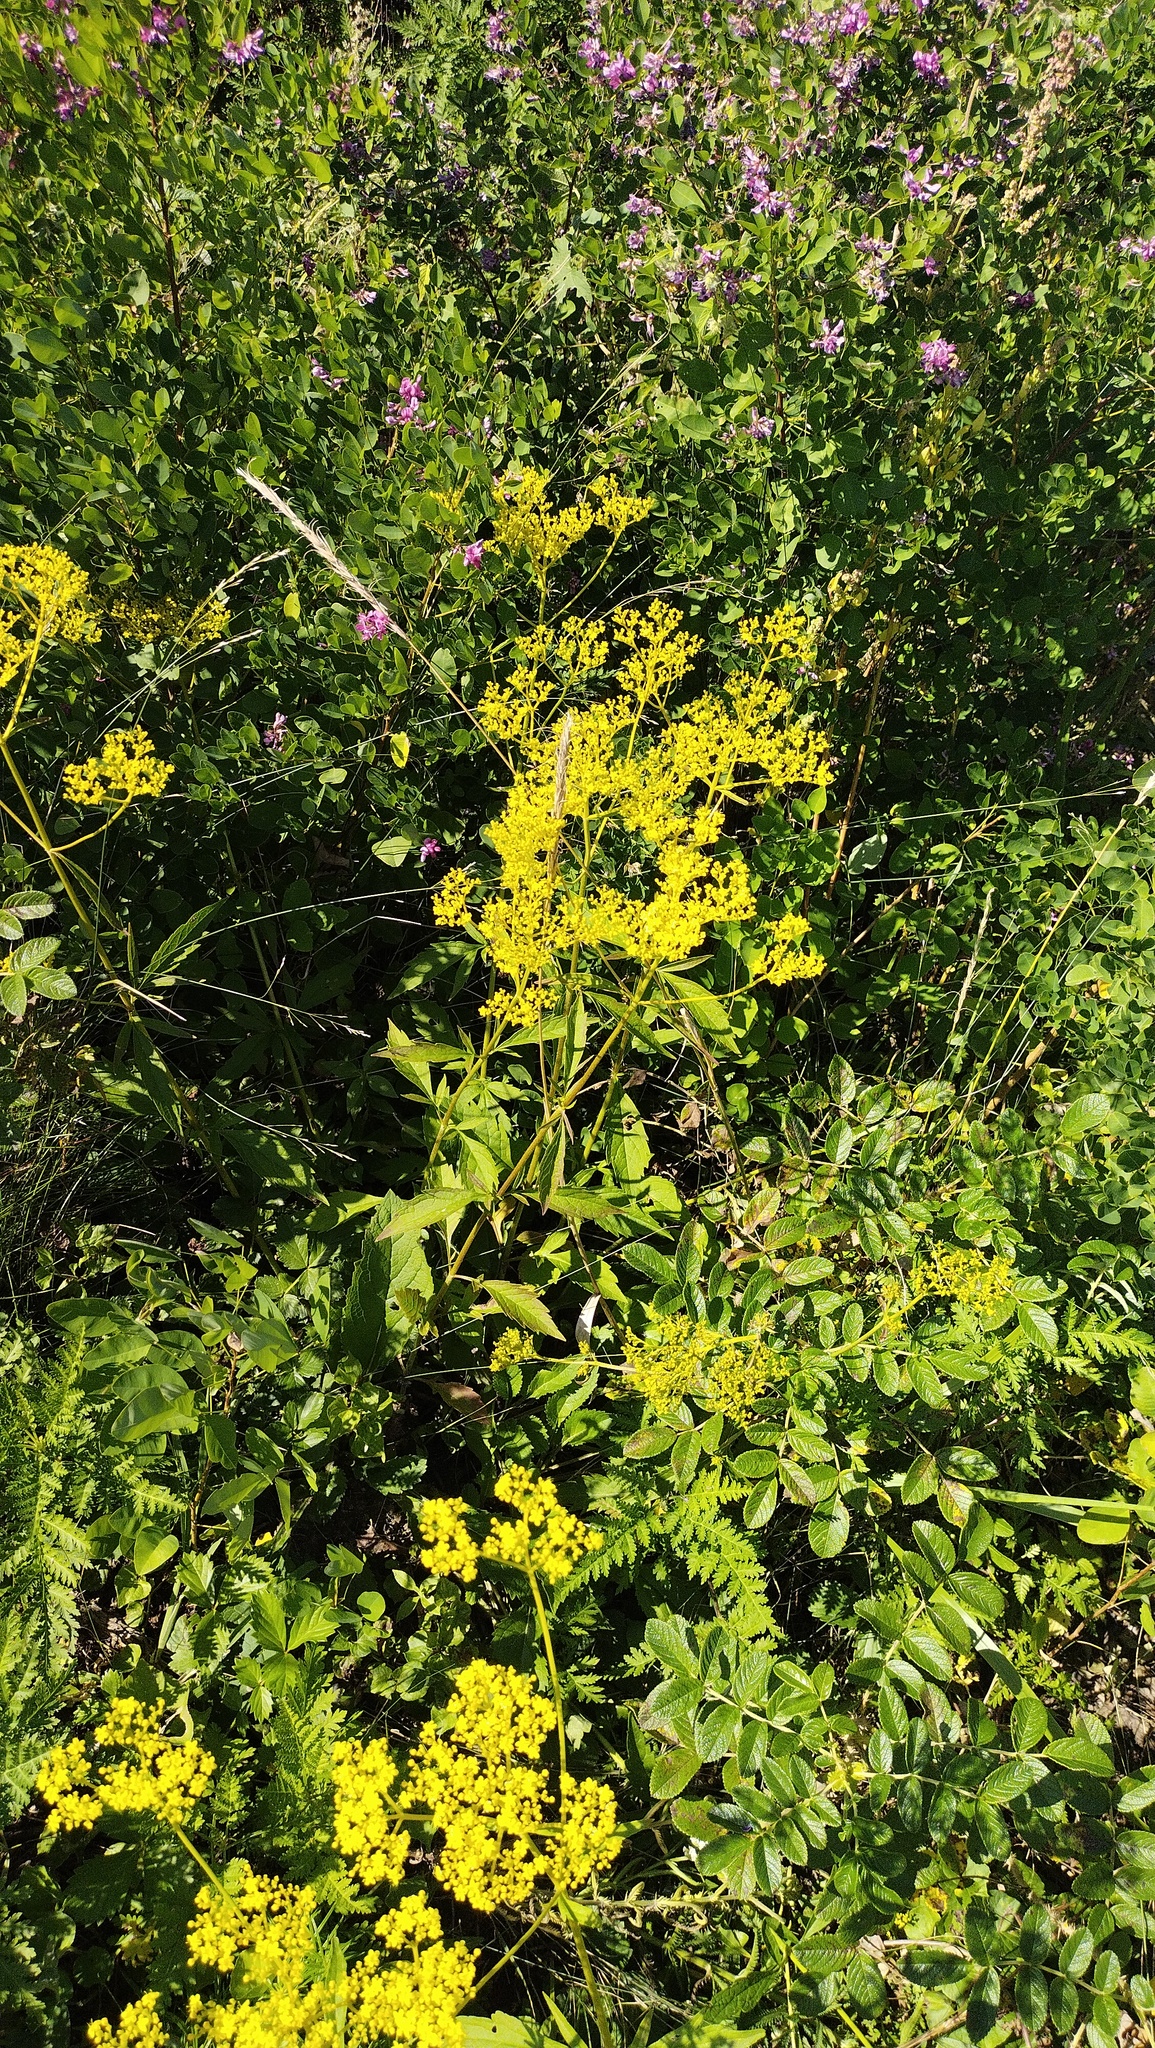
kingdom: Plantae
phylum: Tracheophyta
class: Magnoliopsida
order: Dipsacales
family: Caprifoliaceae
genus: Patrinia
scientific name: Patrinia scabiosifolia
